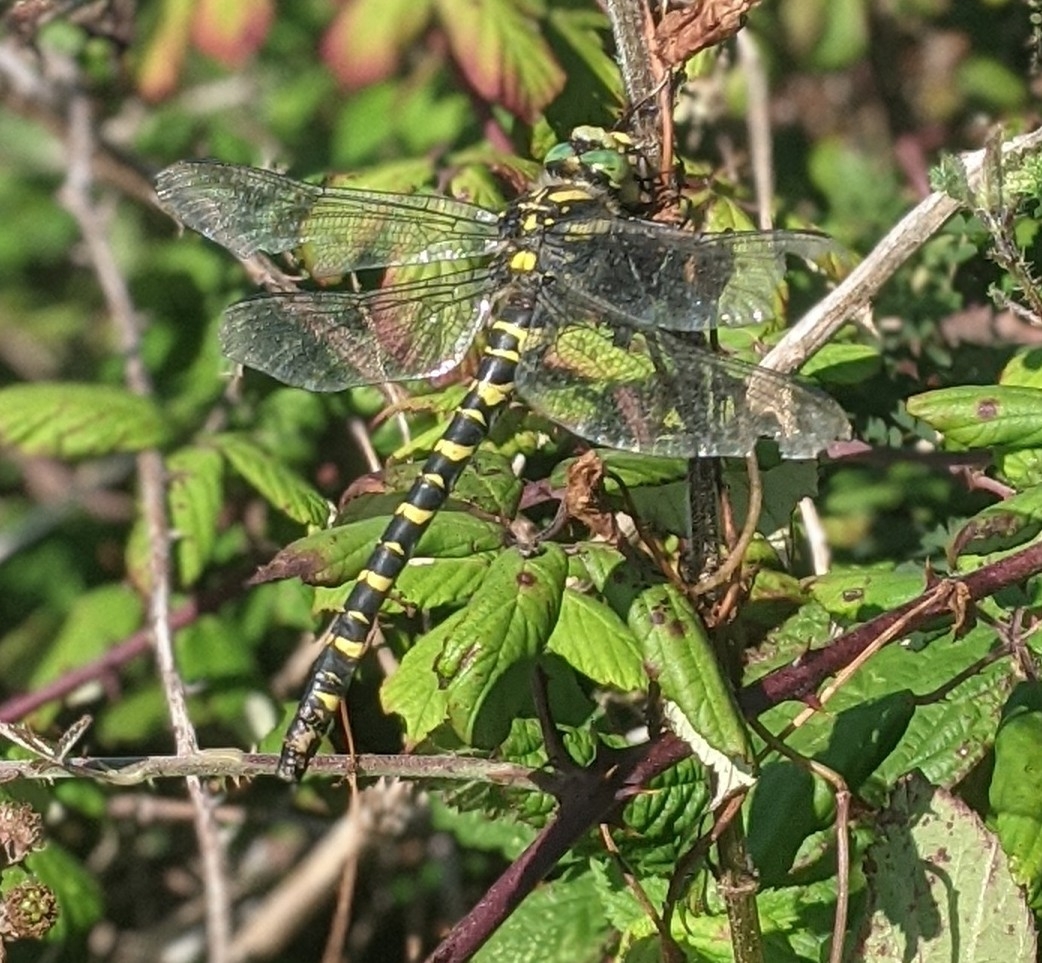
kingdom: Animalia
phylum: Arthropoda
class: Insecta
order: Odonata
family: Cordulegastridae
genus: Cordulegaster
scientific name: Cordulegaster boltonii
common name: Golden-ringed dragonfly
